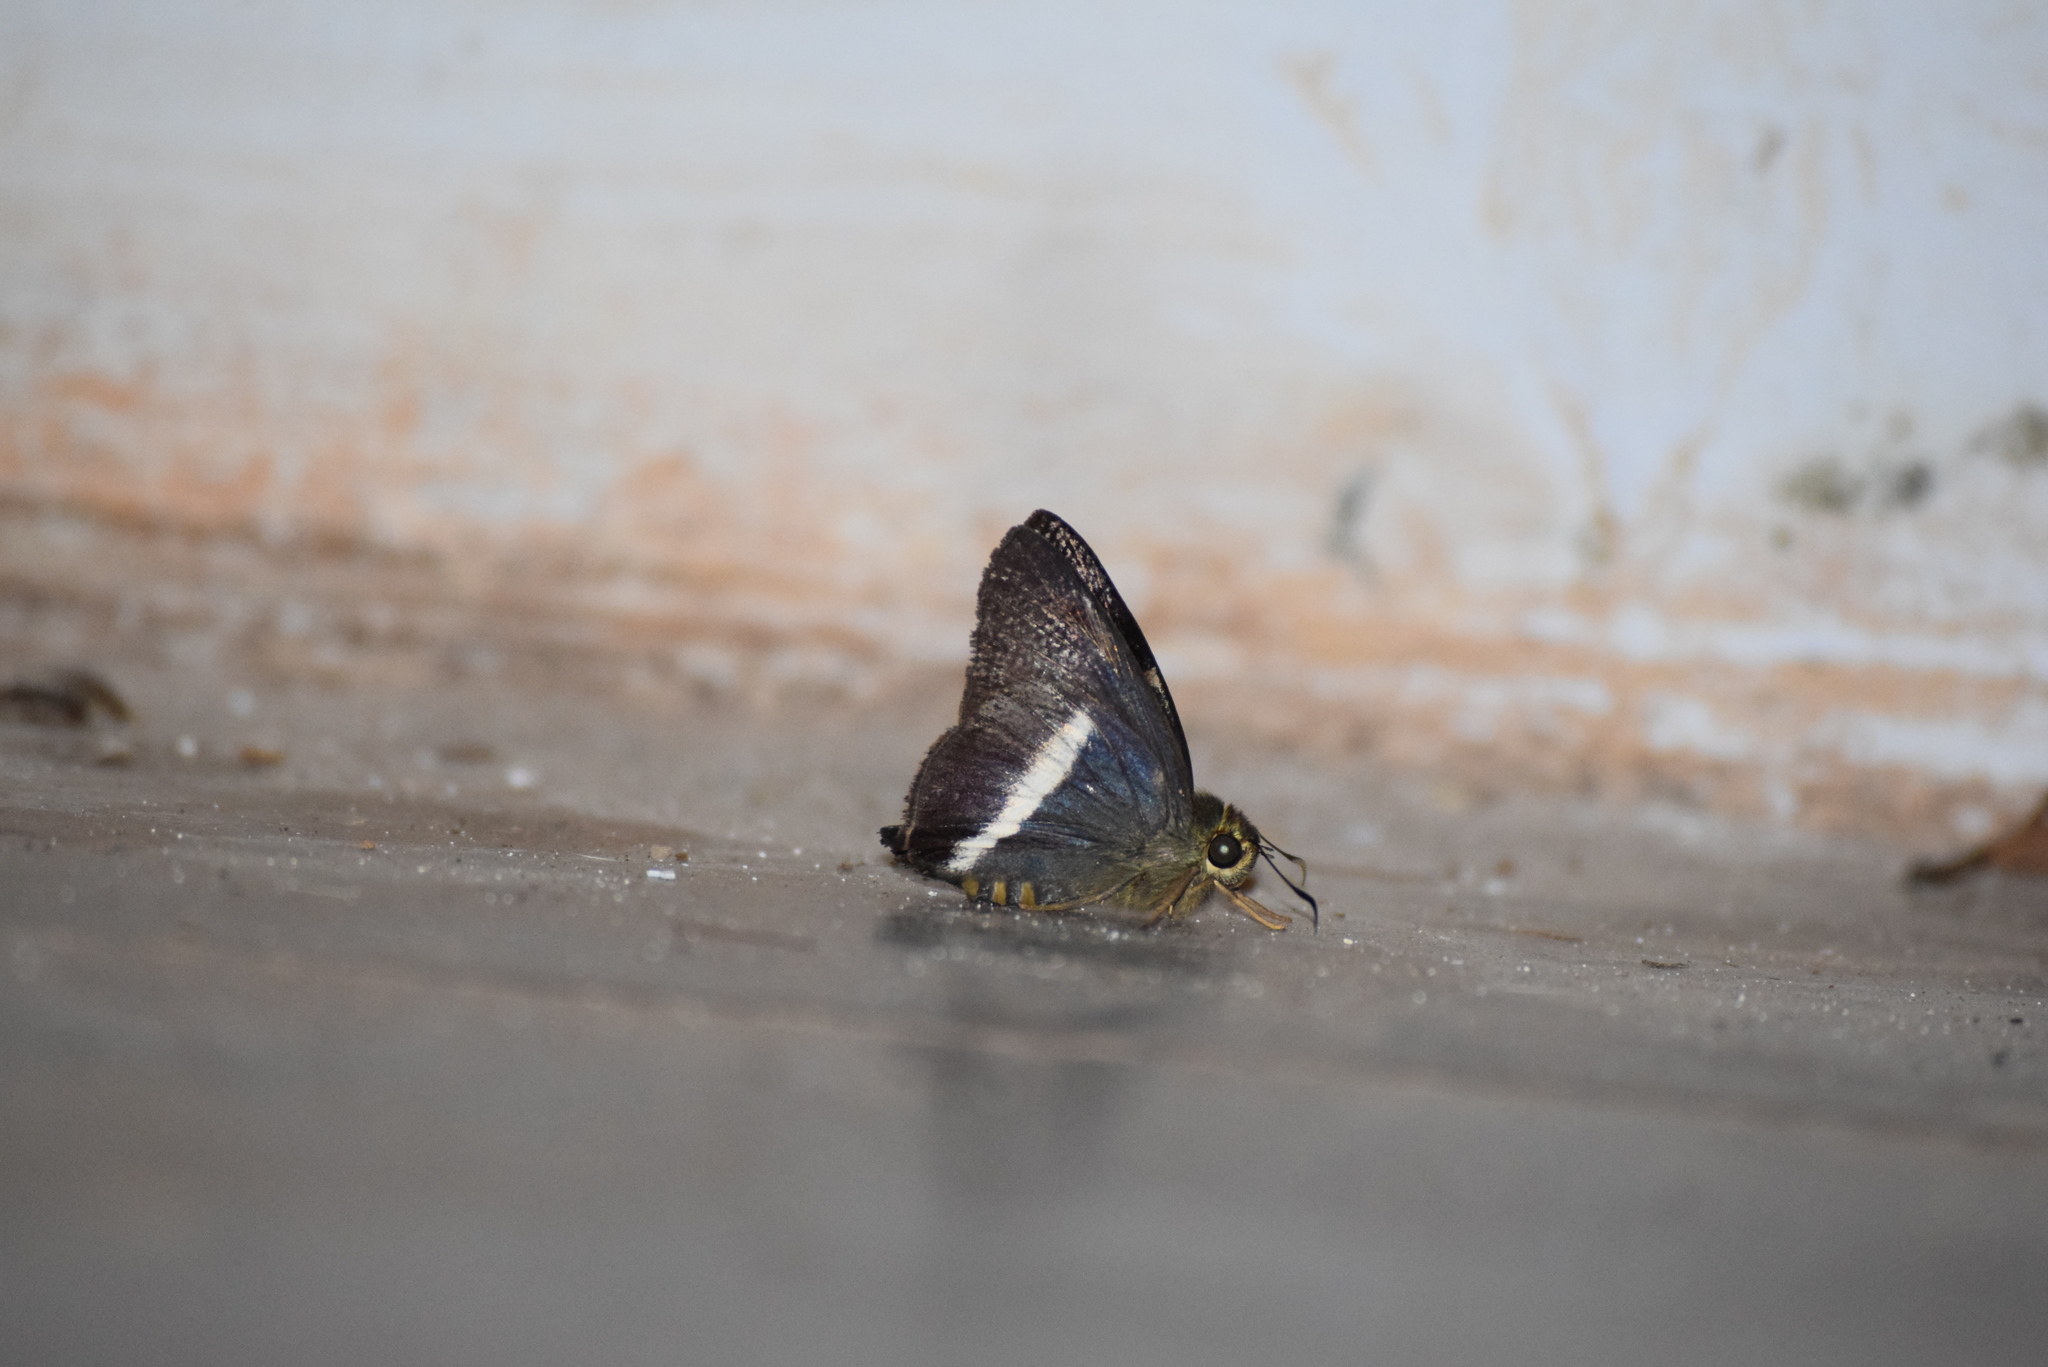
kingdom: Animalia
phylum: Arthropoda
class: Insecta
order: Lepidoptera
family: Hesperiidae
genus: Hasora
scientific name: Hasora taminatus
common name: White banded awl
